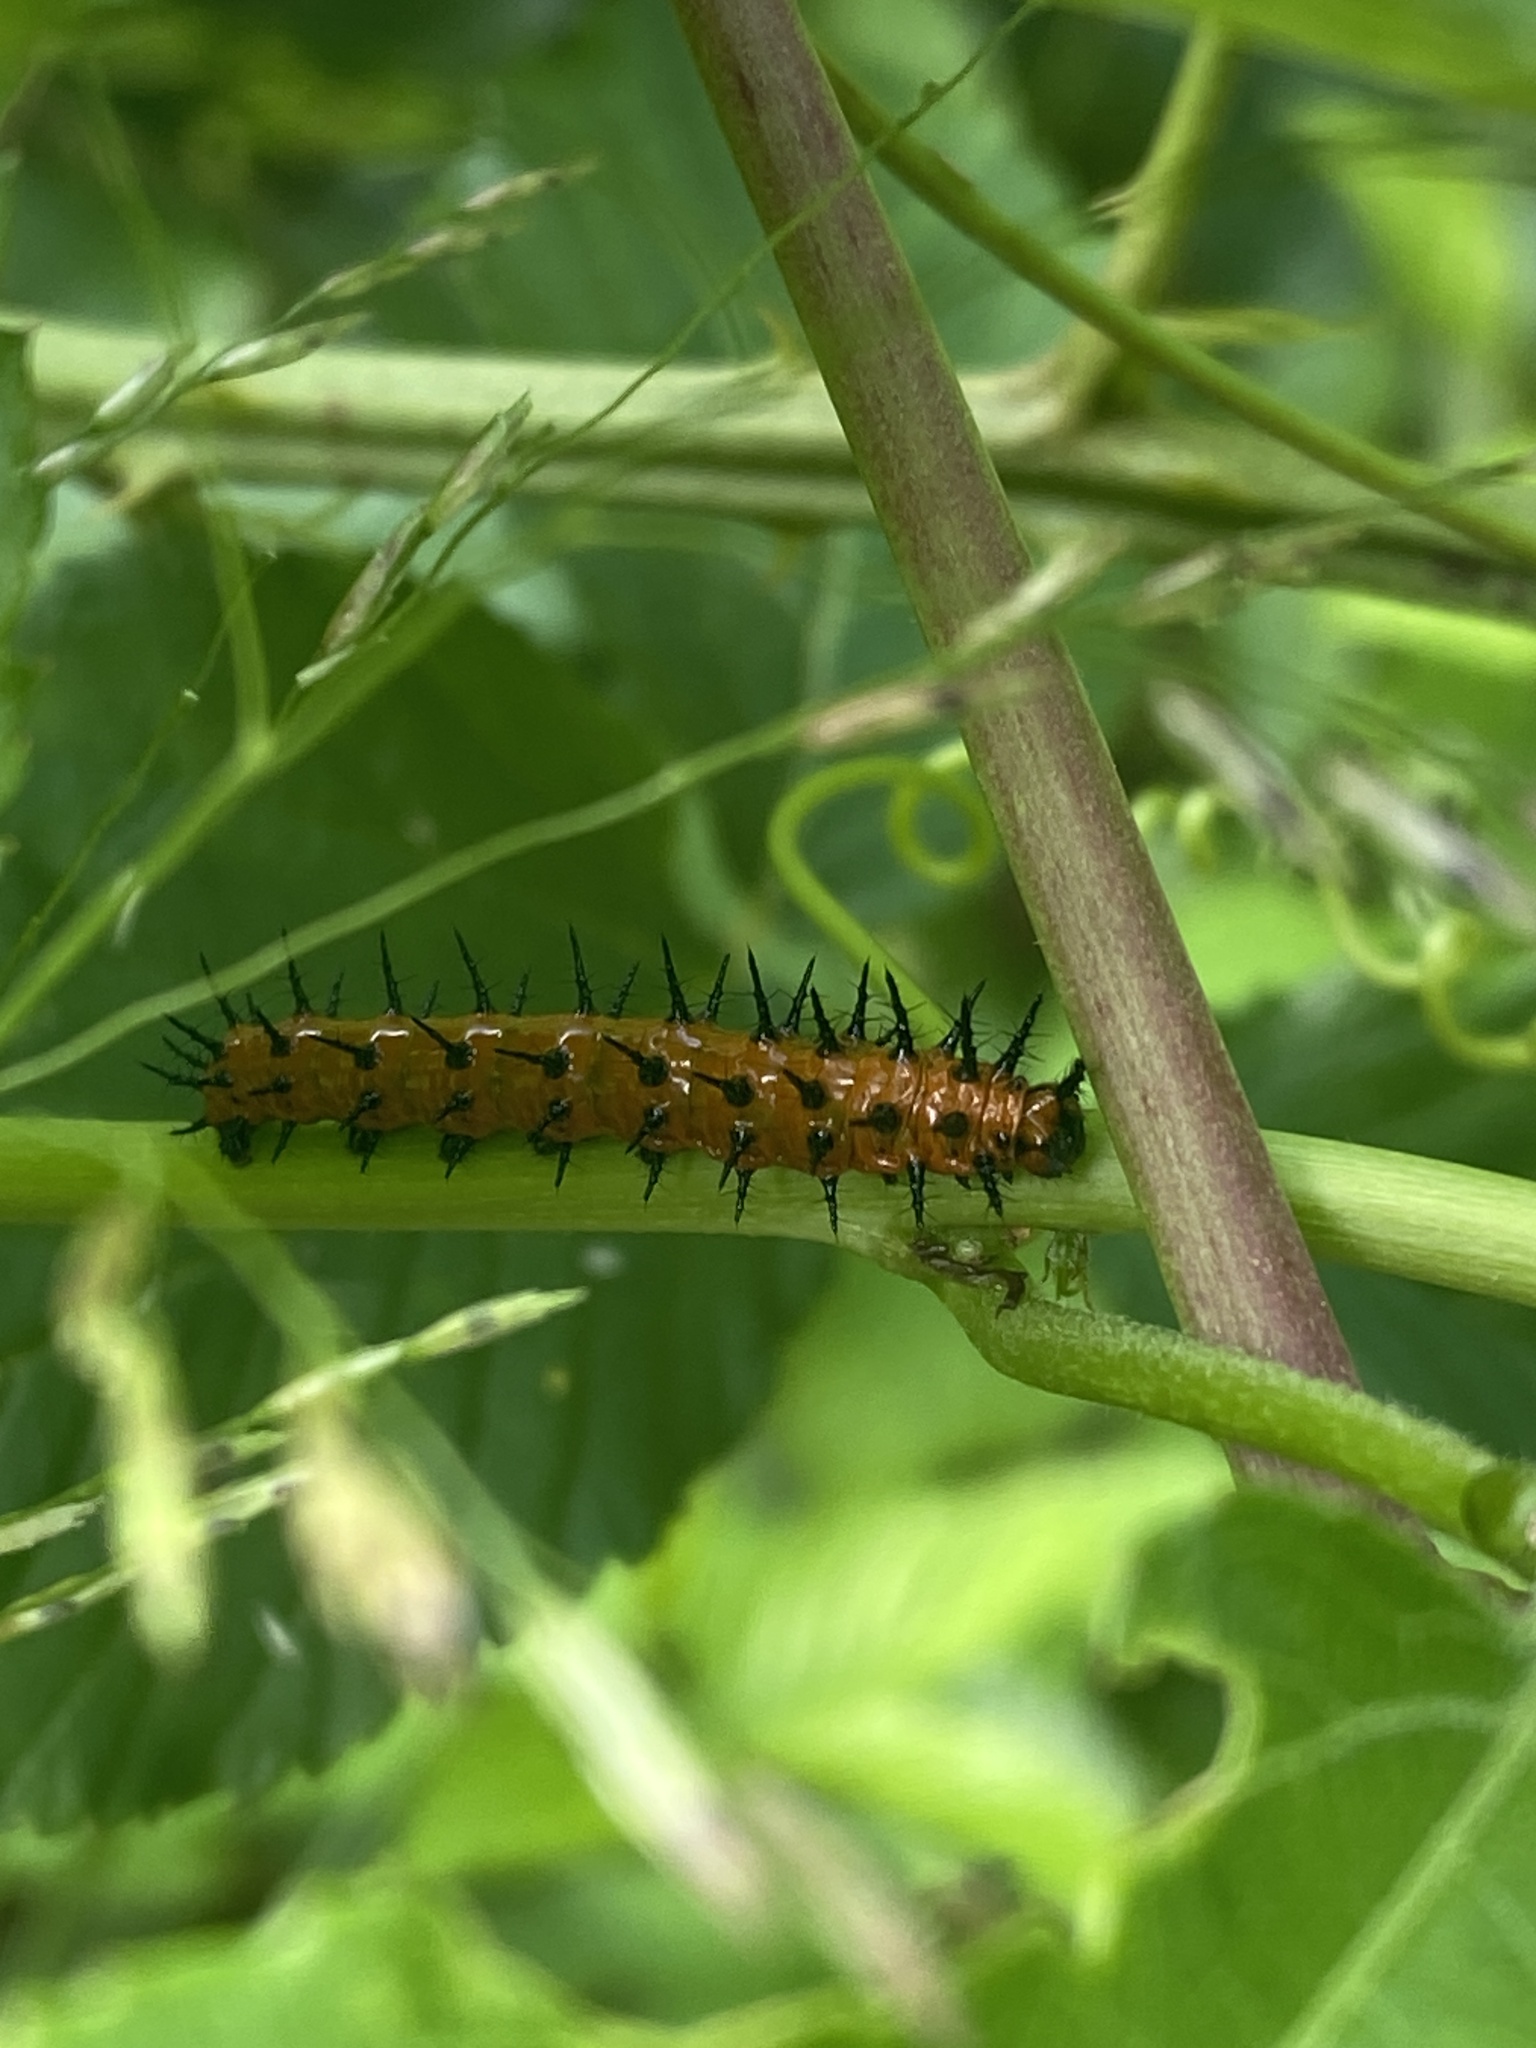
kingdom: Animalia
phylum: Arthropoda
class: Insecta
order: Lepidoptera
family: Nymphalidae
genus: Dione
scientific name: Dione vanillae
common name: Gulf fritillary
